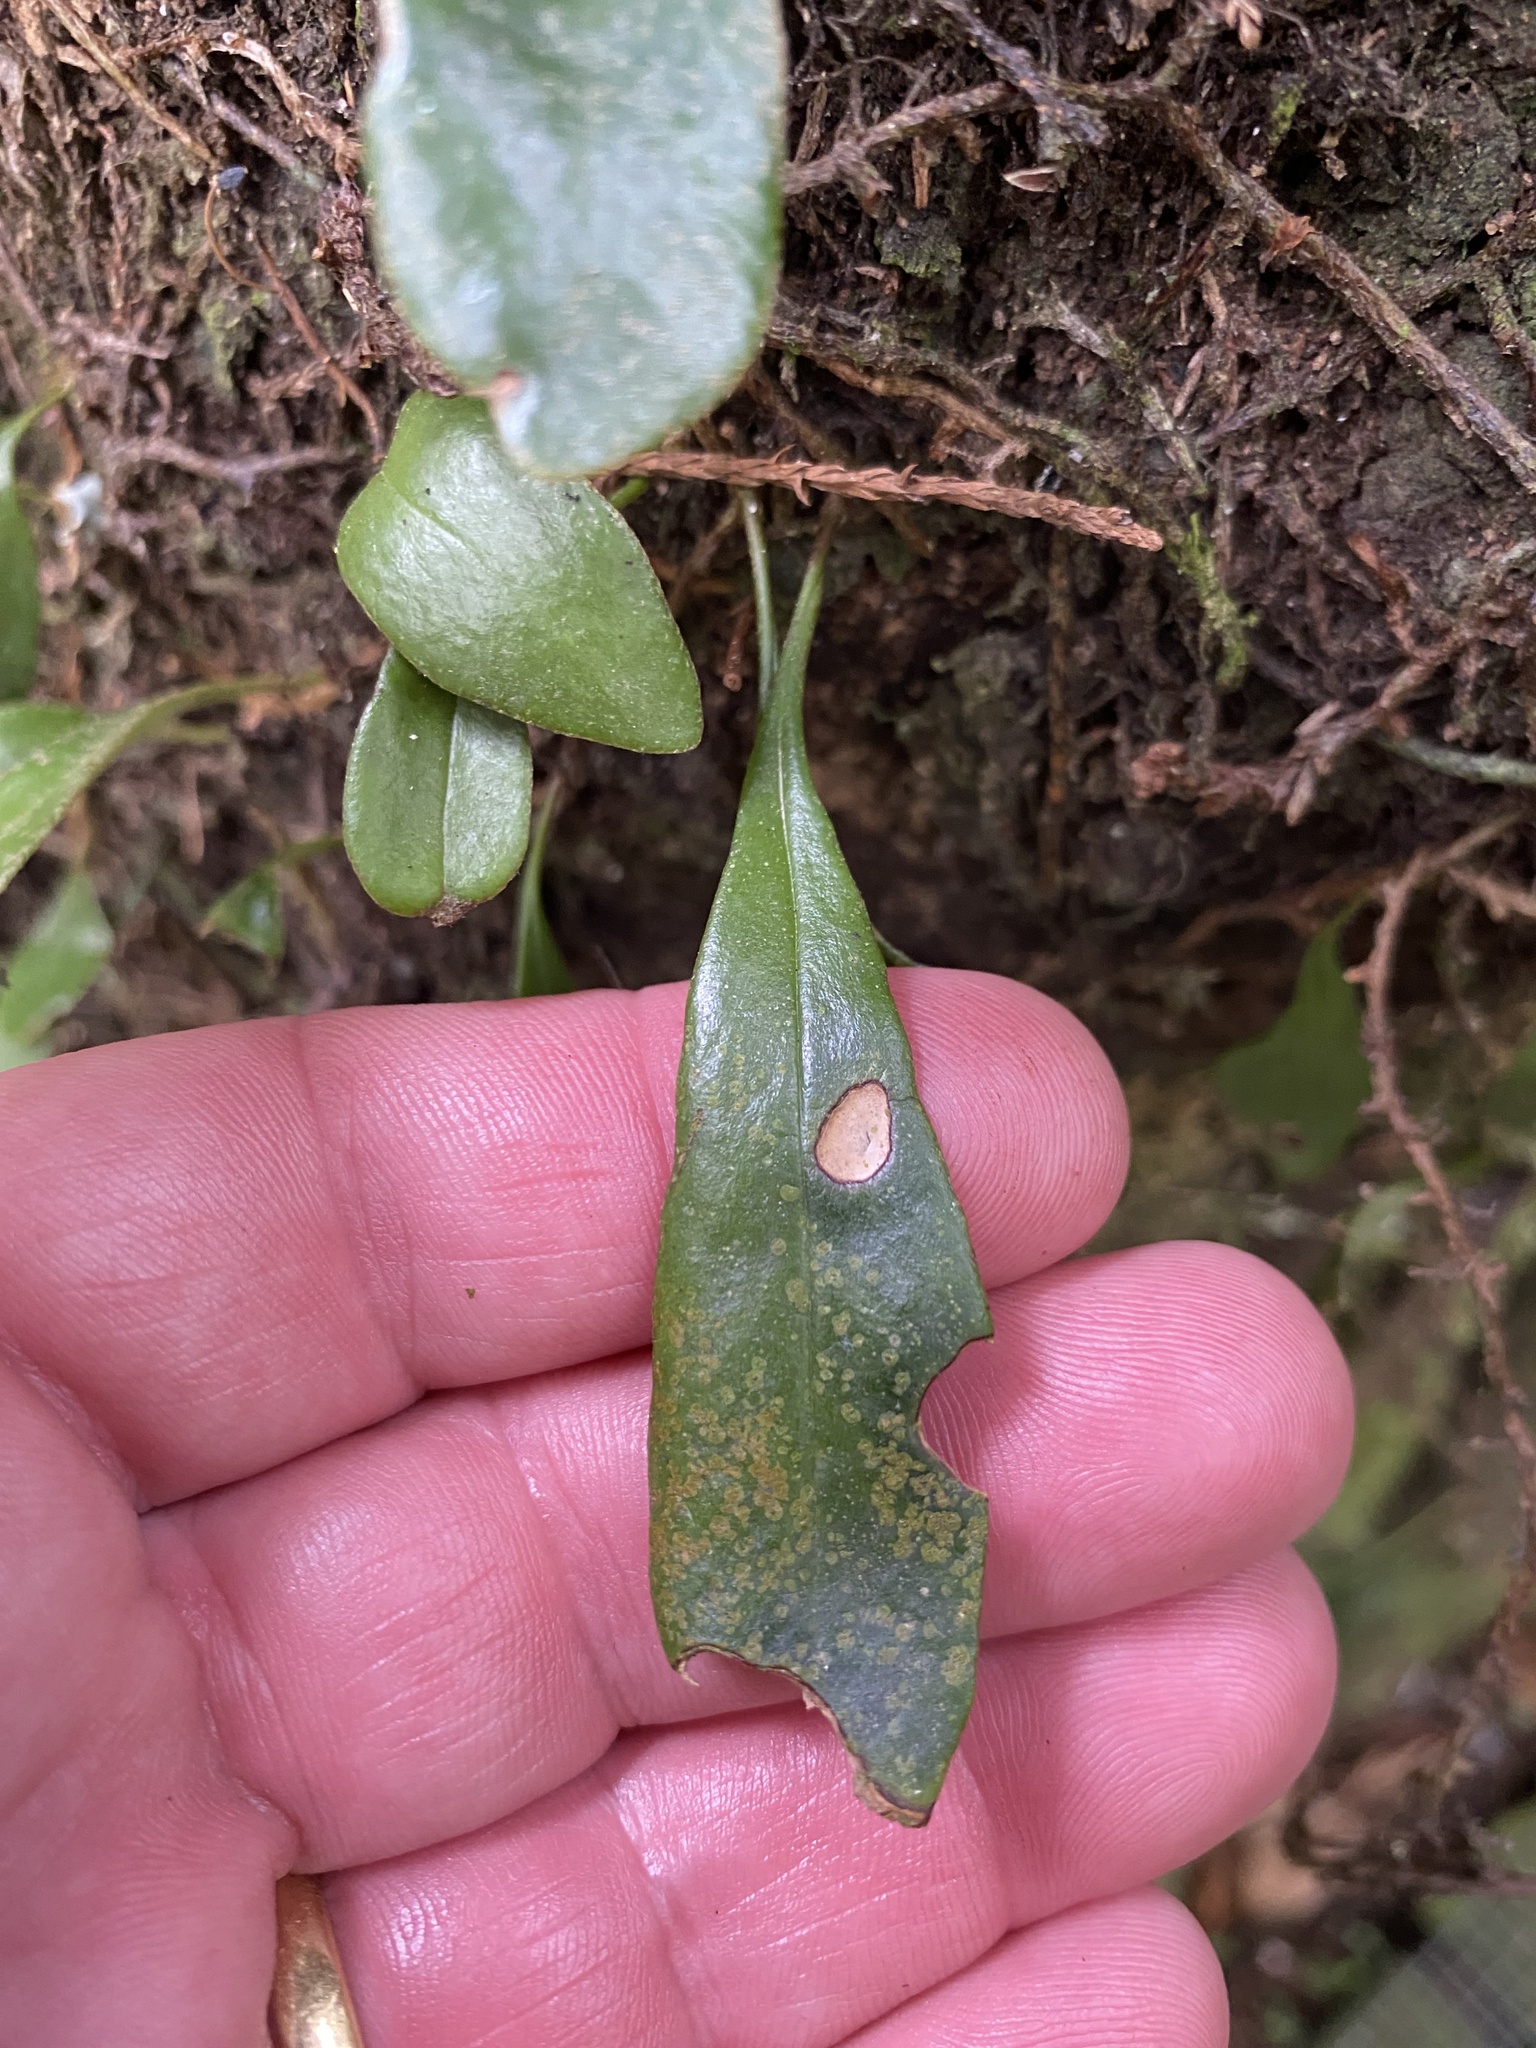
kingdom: Plantae
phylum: Tracheophyta
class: Polypodiopsida
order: Polypodiales
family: Polypodiaceae
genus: Pyrrosia
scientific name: Pyrrosia eleagnifolia
